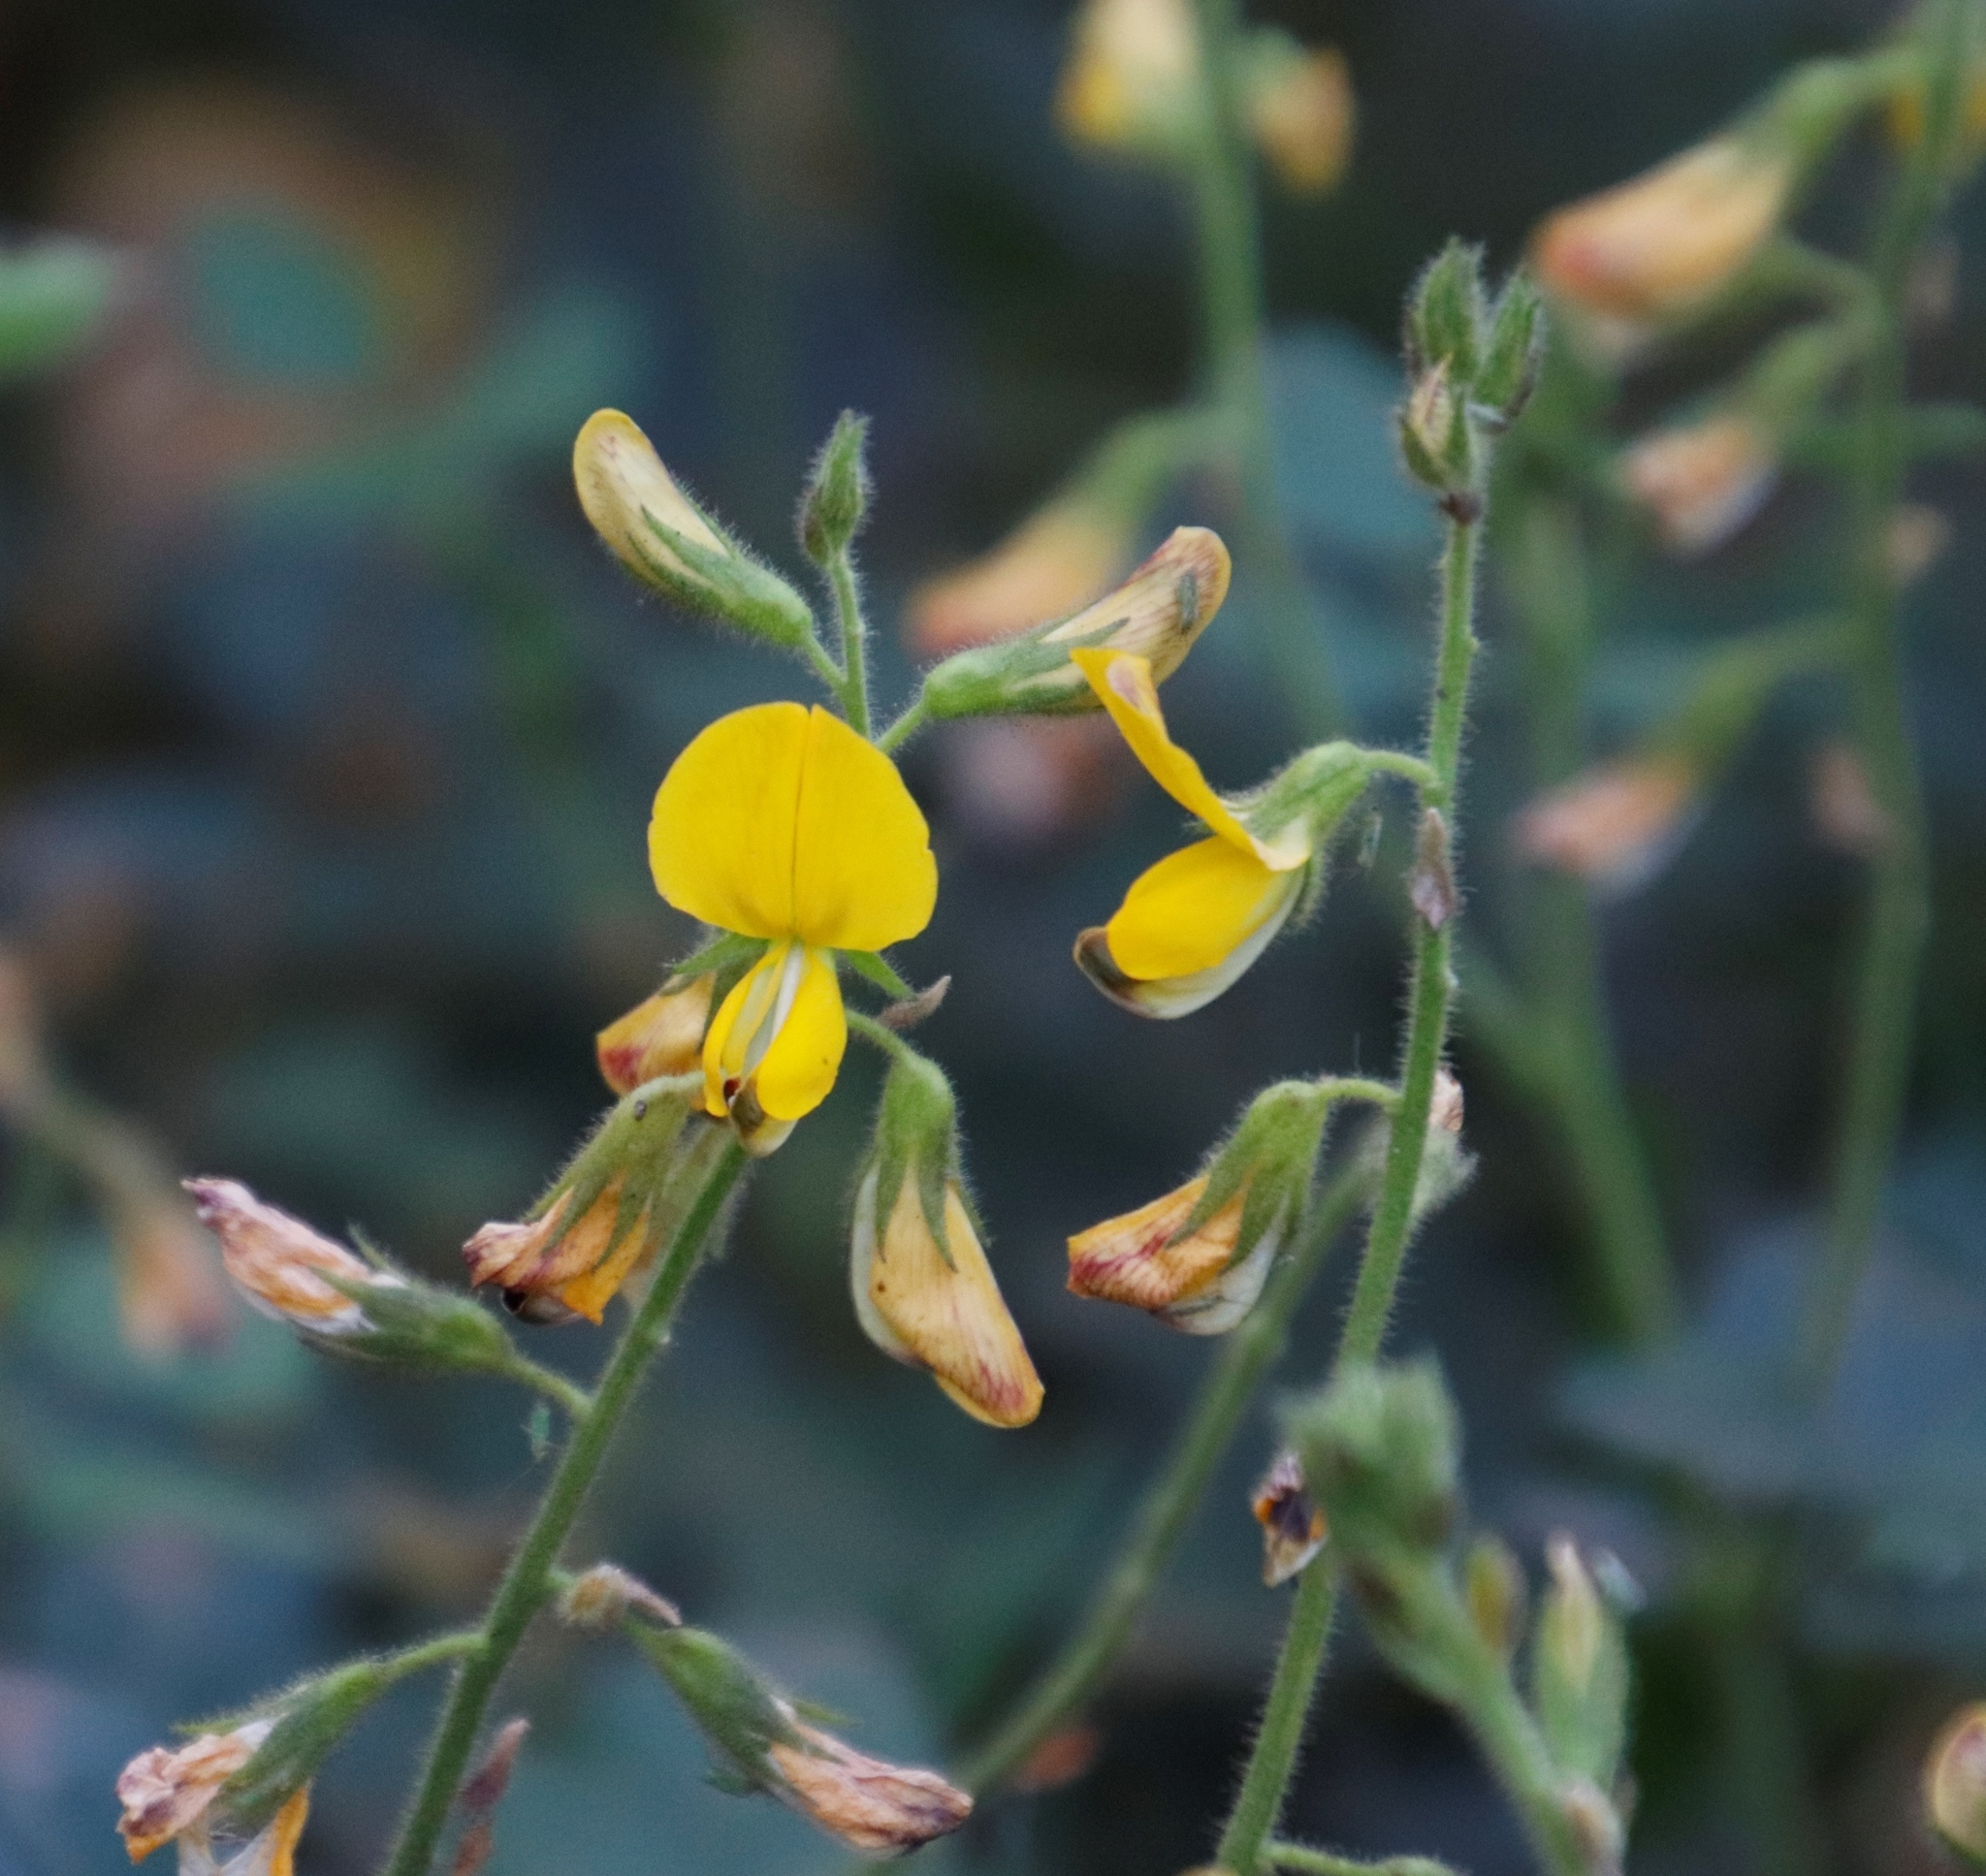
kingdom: Plantae
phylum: Tracheophyta
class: Magnoliopsida
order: Fabales
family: Fabaceae
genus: Bolusafra
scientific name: Bolusafra bituminosa
